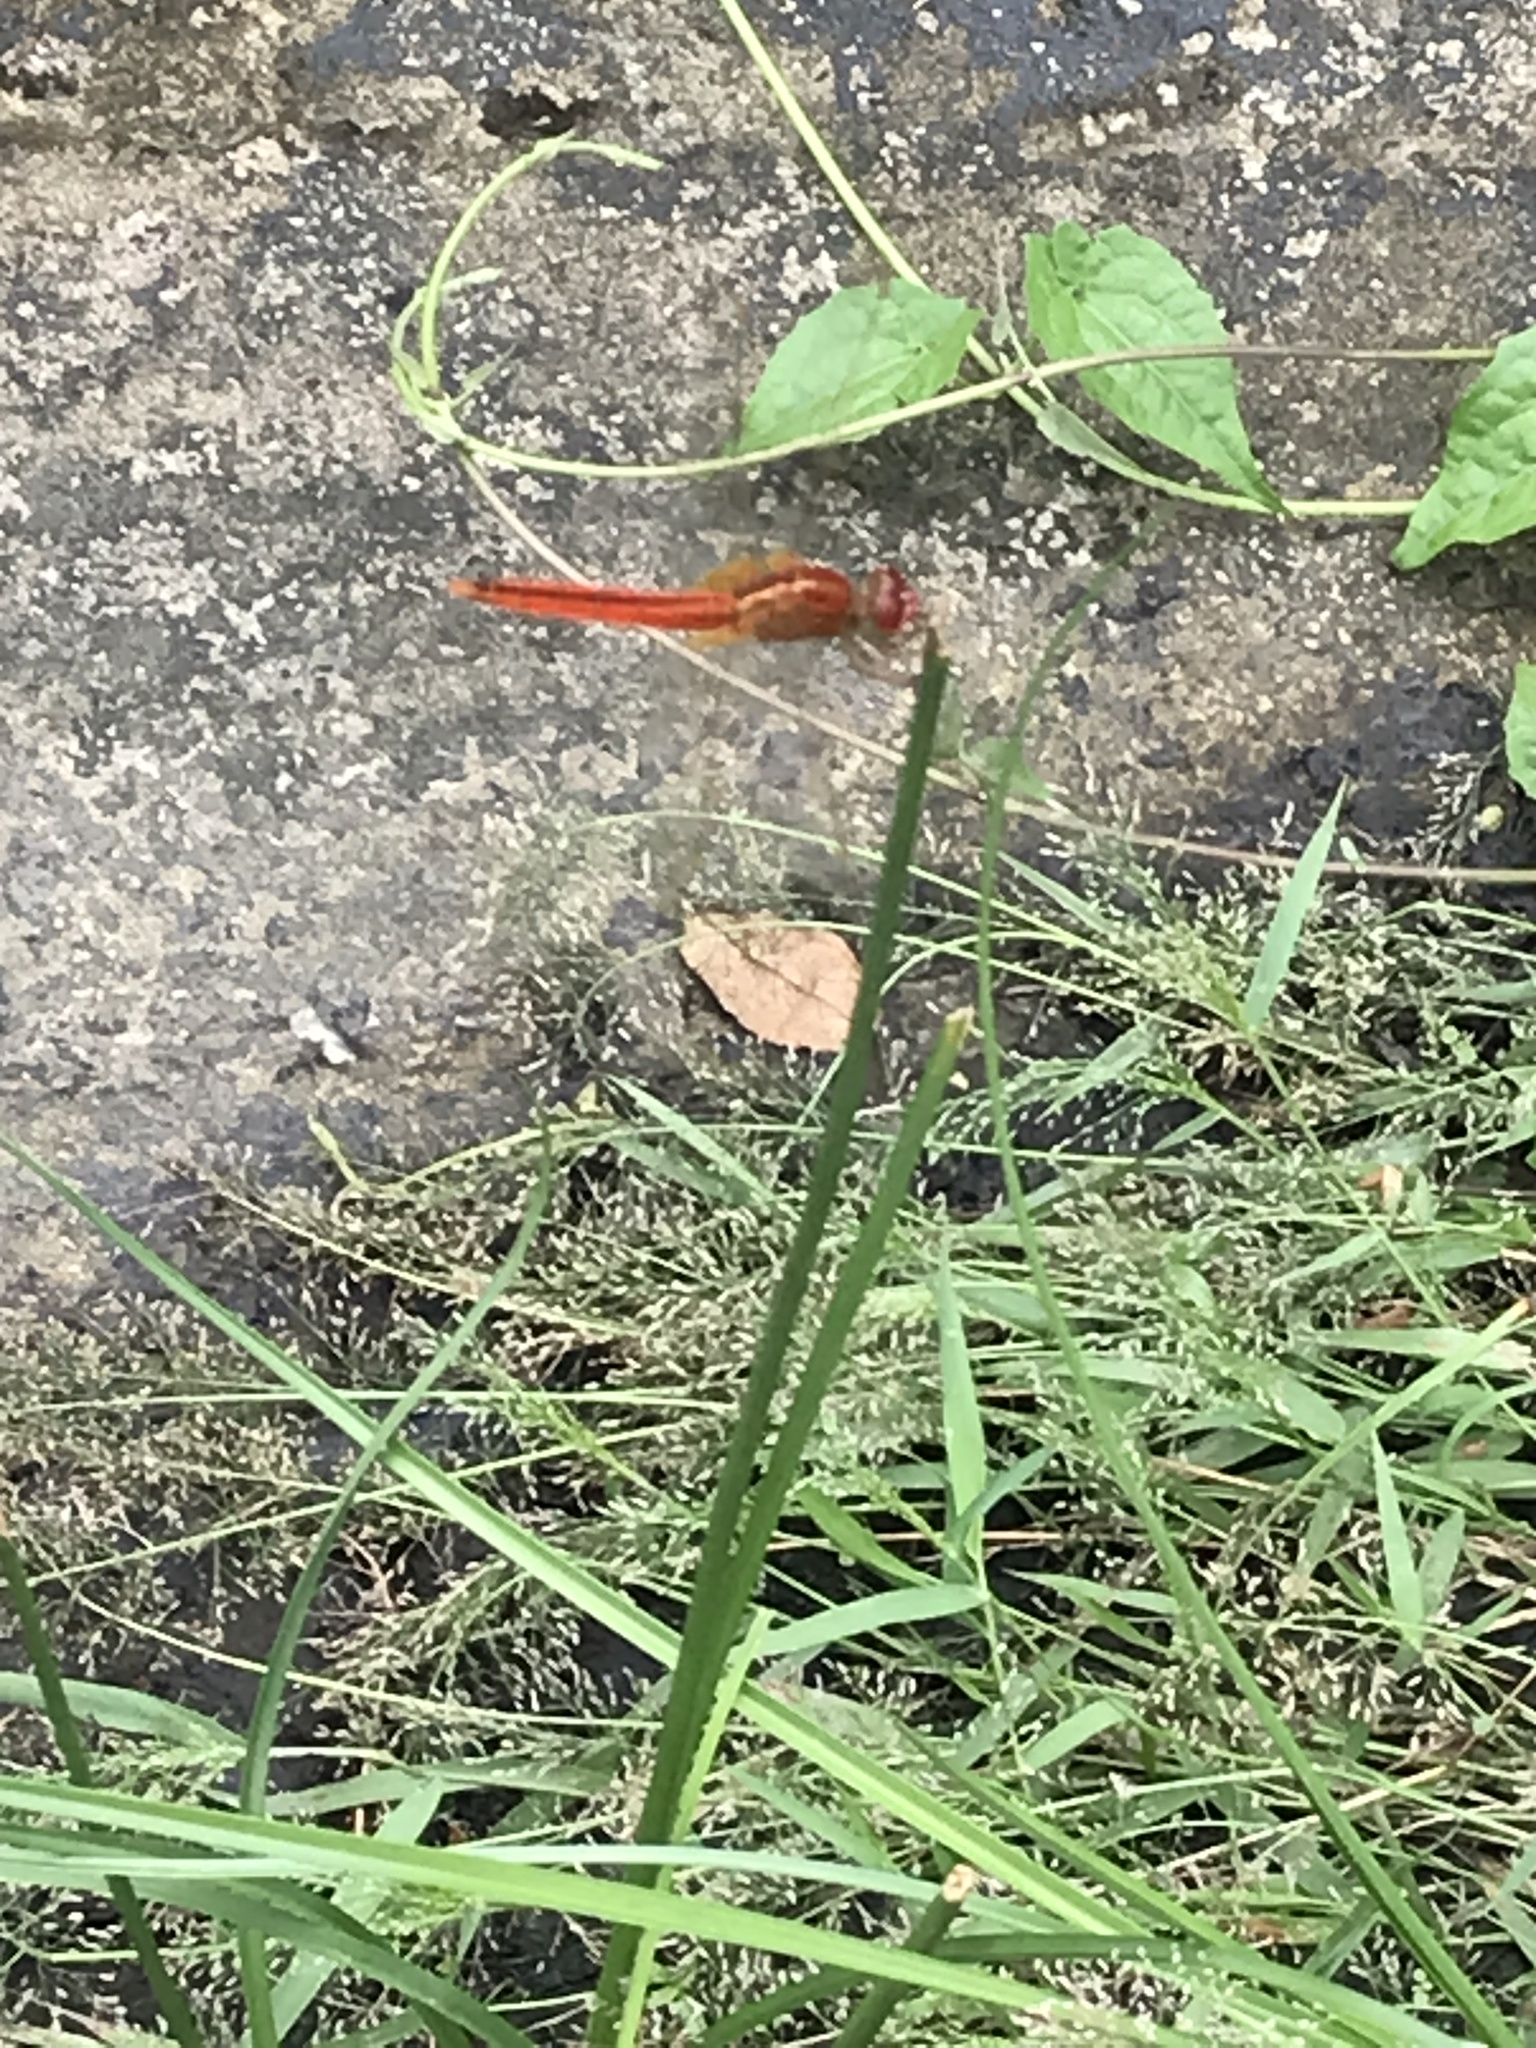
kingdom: Animalia
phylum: Arthropoda
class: Insecta
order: Odonata
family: Libellulidae
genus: Crocothemis
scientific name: Crocothemis servilia
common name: Scarlet skimmer
